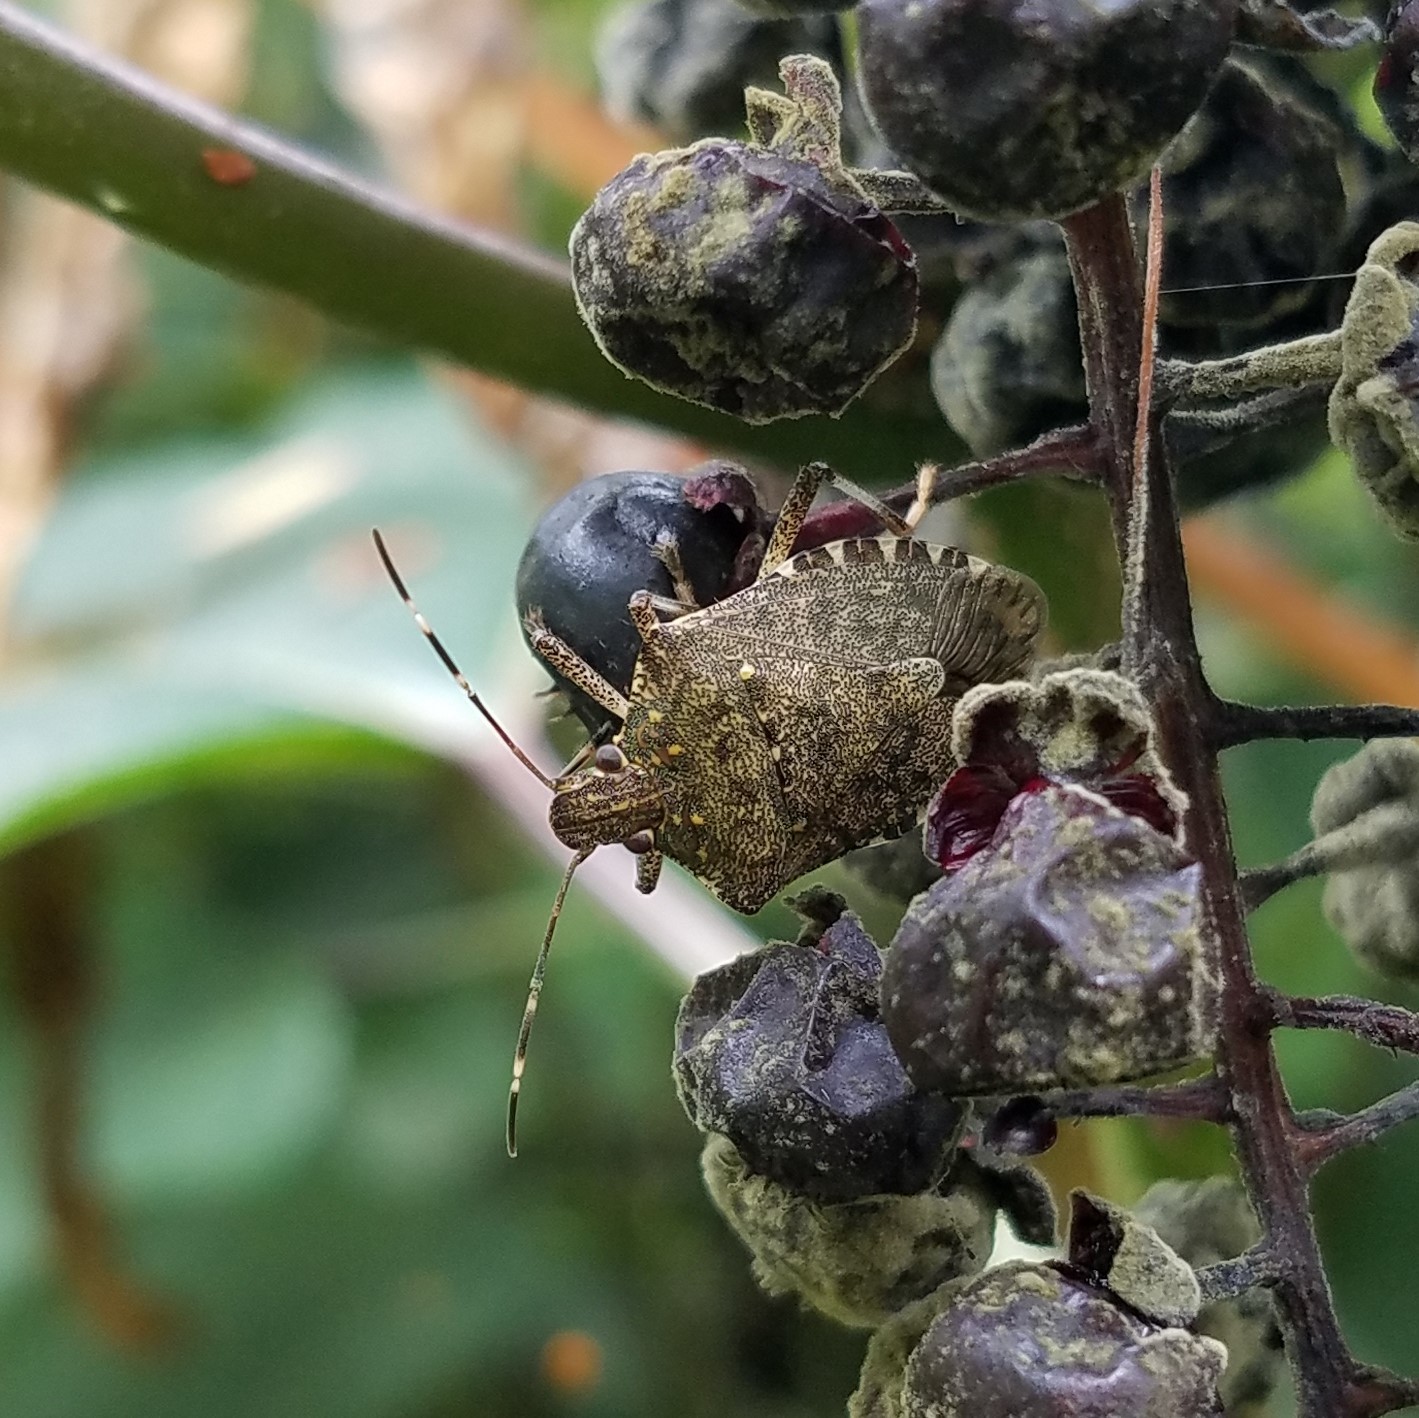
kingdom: Animalia
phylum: Arthropoda
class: Insecta
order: Hemiptera
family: Pentatomidae
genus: Halyomorpha
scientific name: Halyomorpha halys
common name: Brown marmorated stink bug
